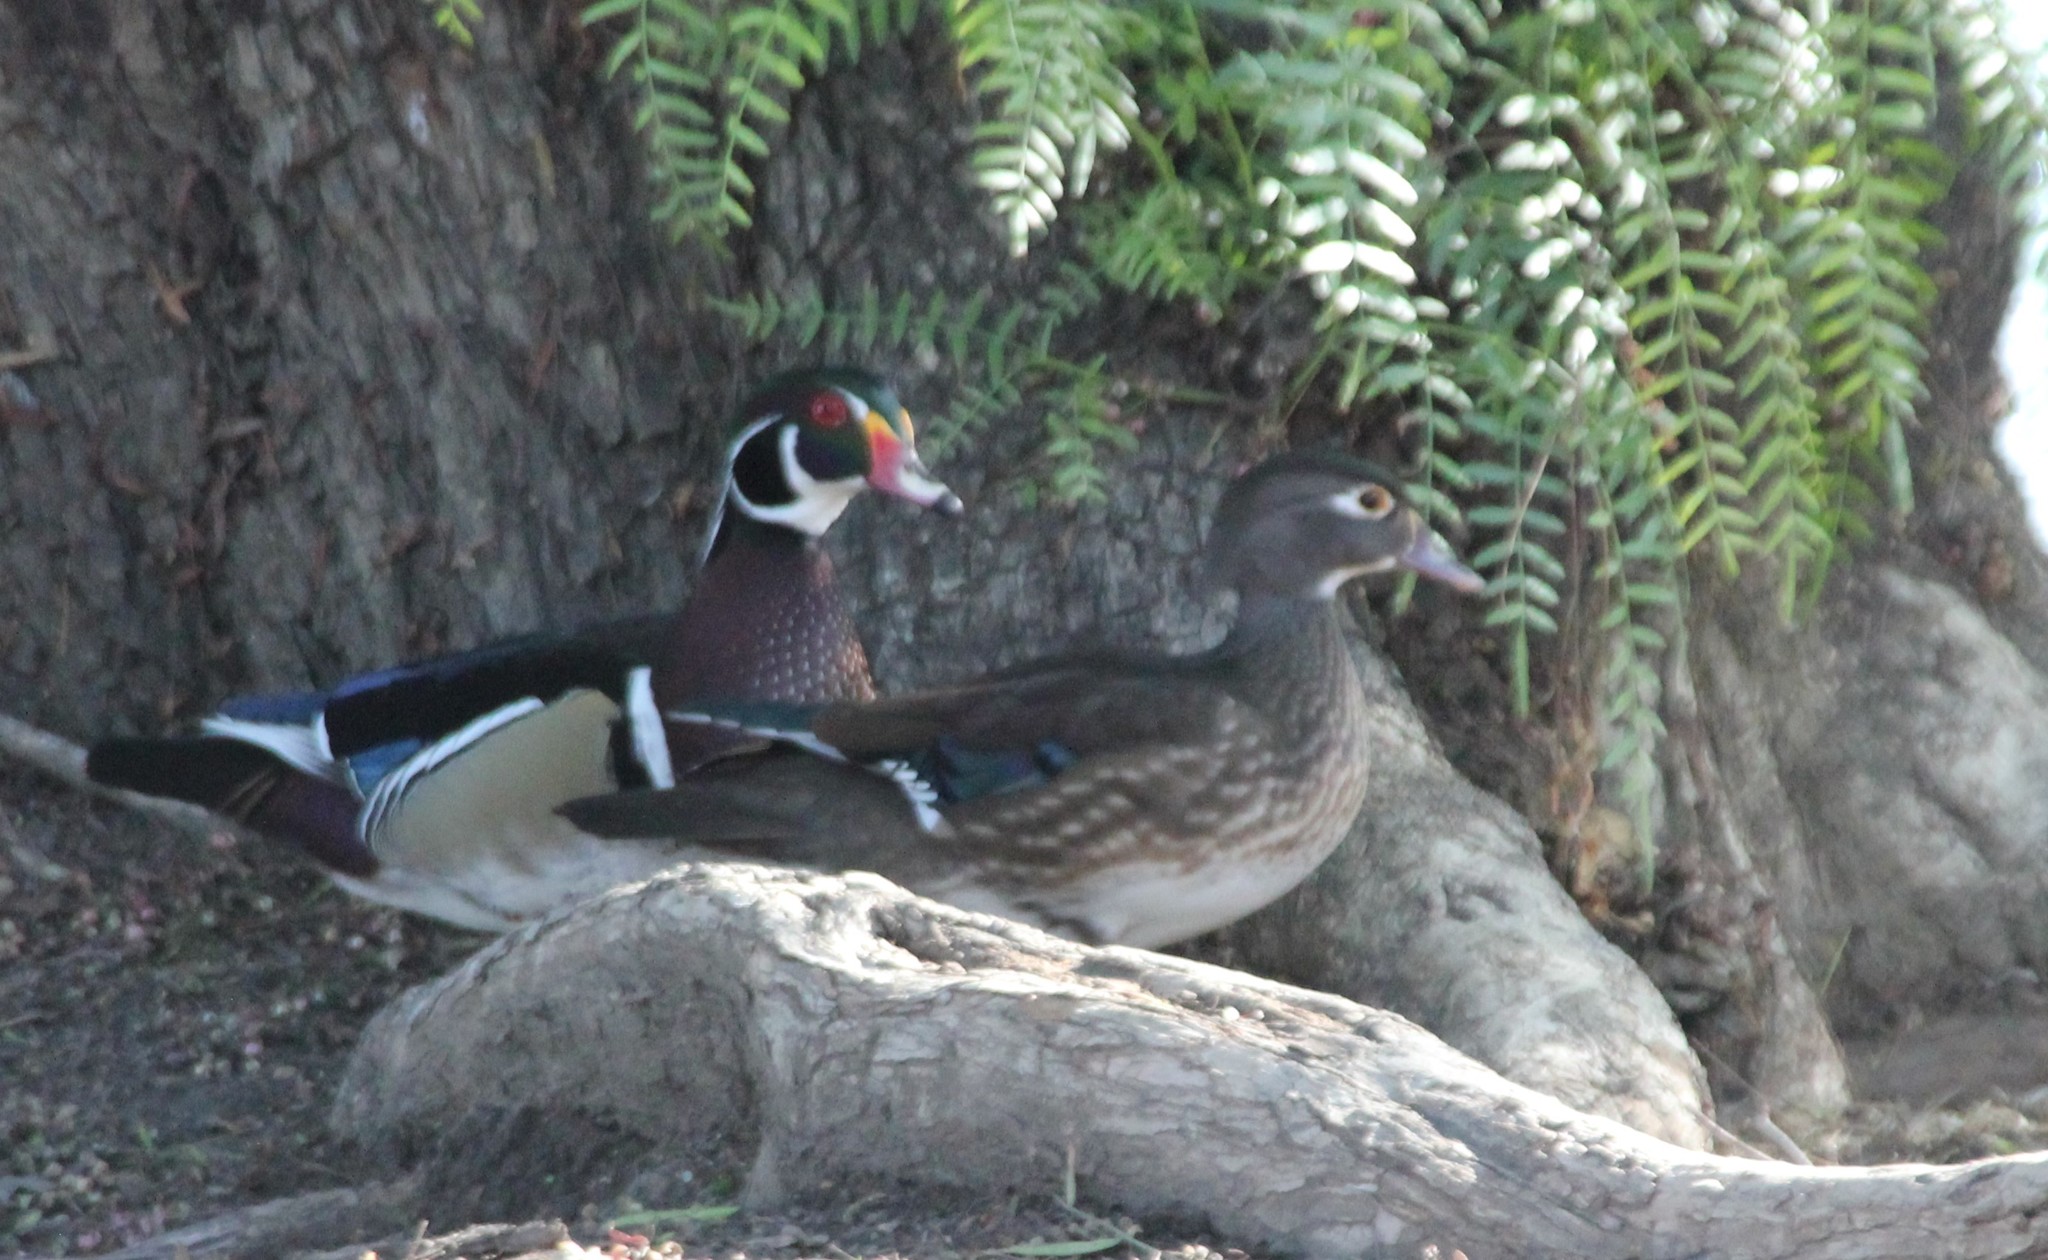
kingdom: Animalia
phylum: Chordata
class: Aves
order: Anseriformes
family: Anatidae
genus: Aix
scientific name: Aix sponsa
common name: Wood duck
